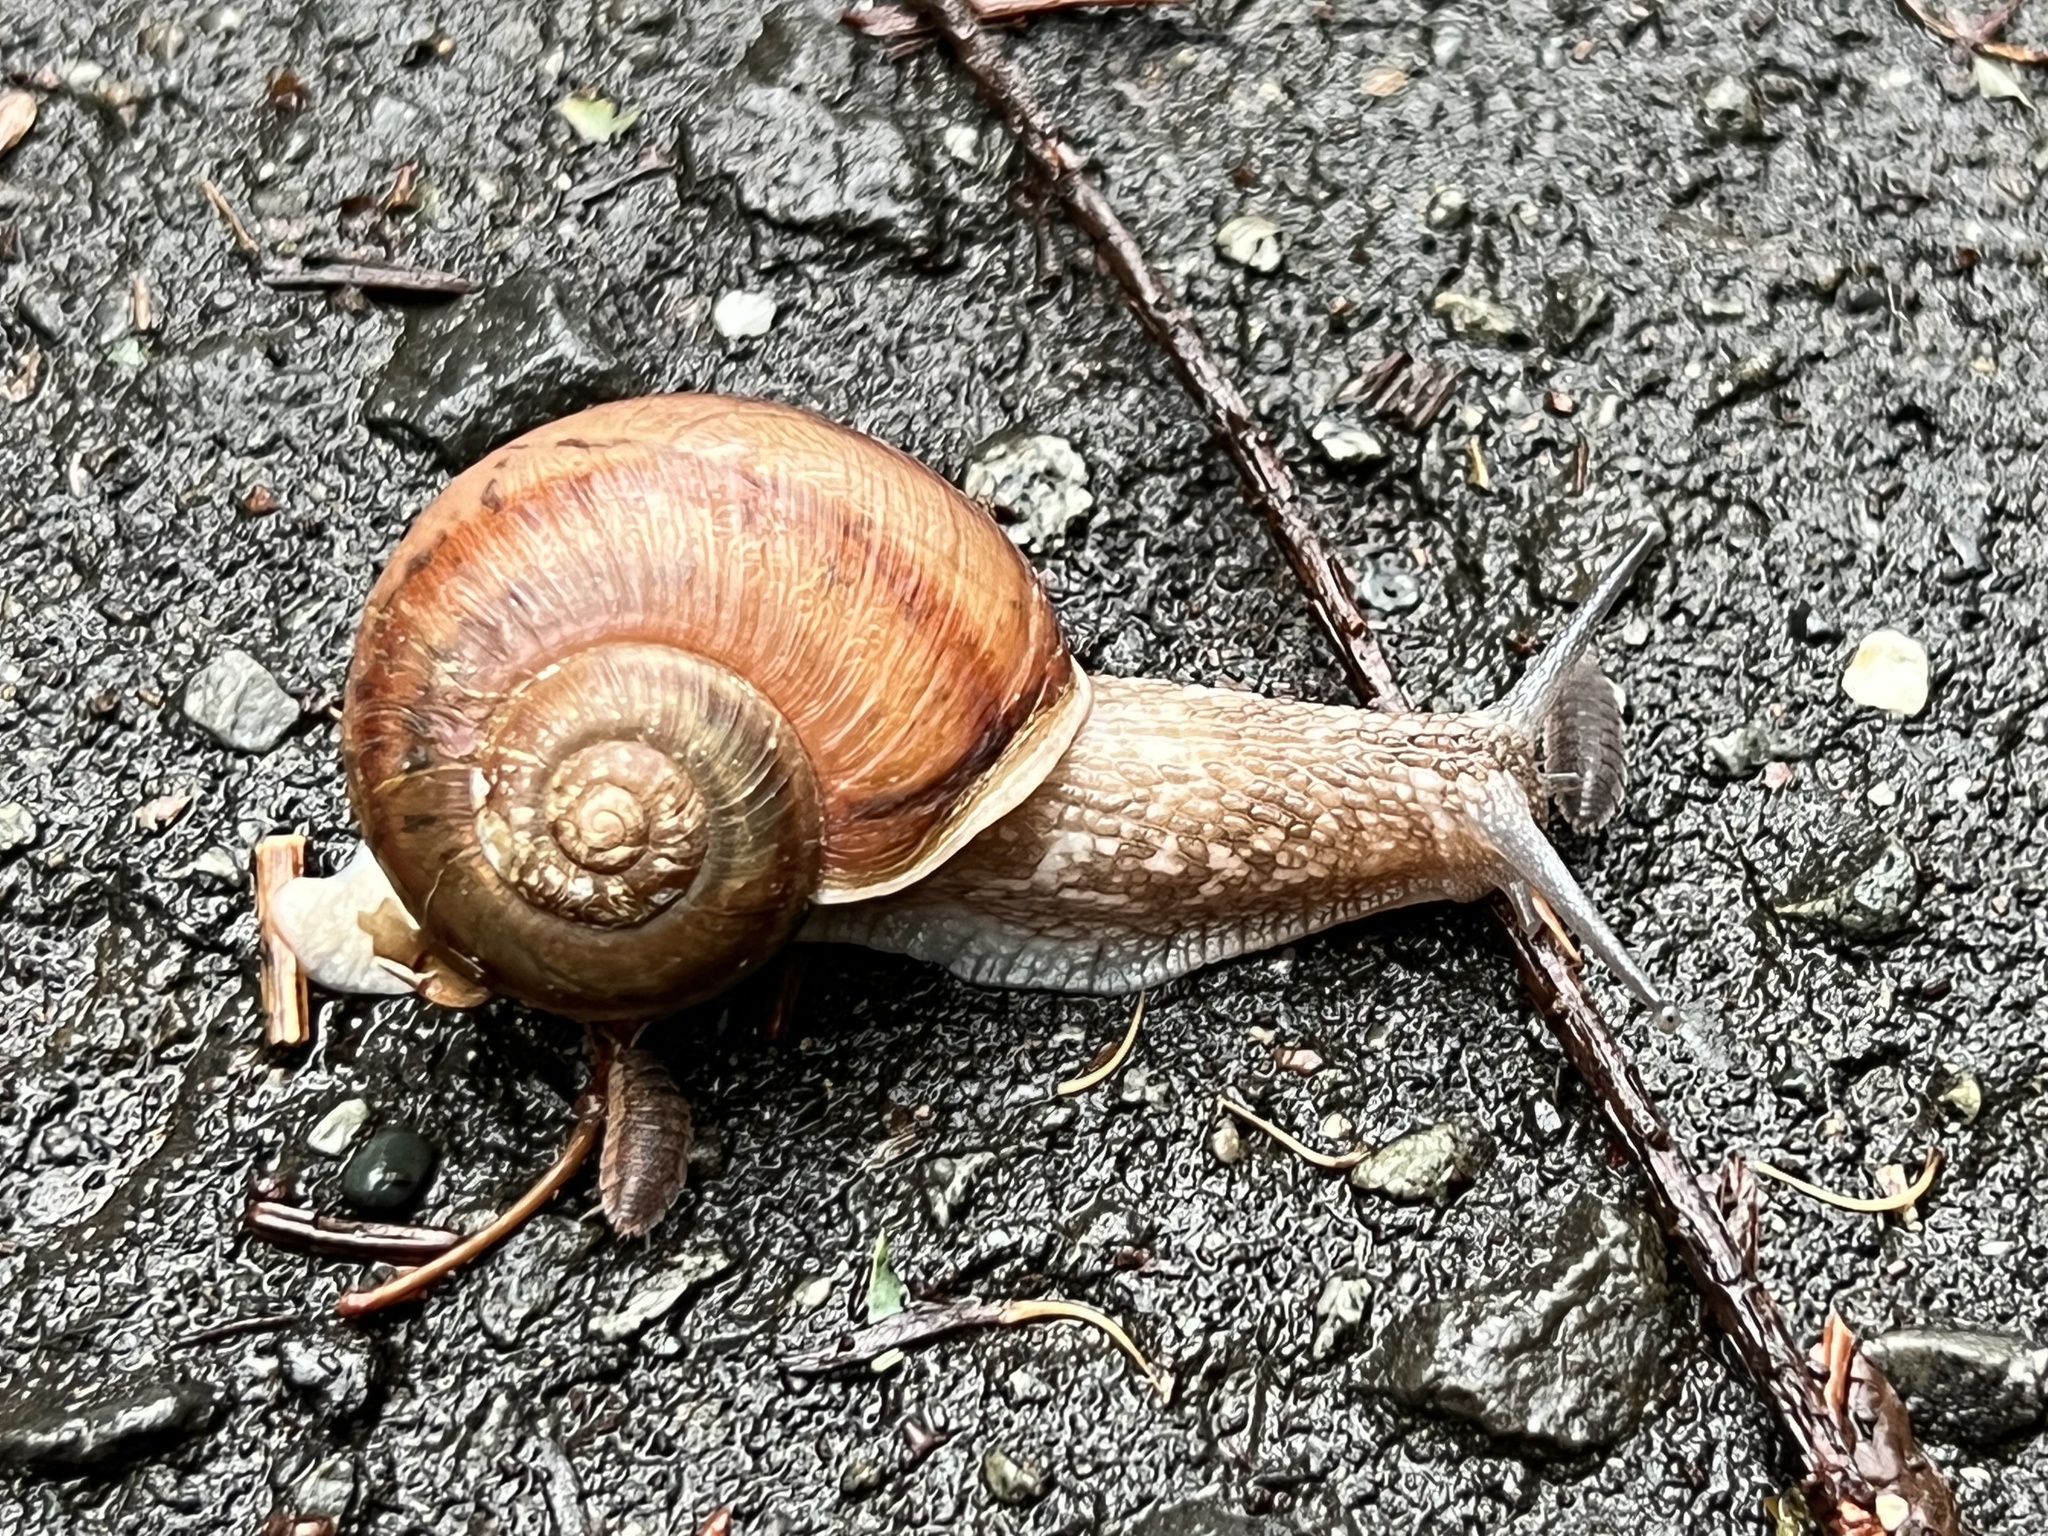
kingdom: Animalia
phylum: Mollusca
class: Gastropoda
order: Stylommatophora
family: Camaenidae
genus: Karaftohelix
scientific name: Karaftohelix gainesi
